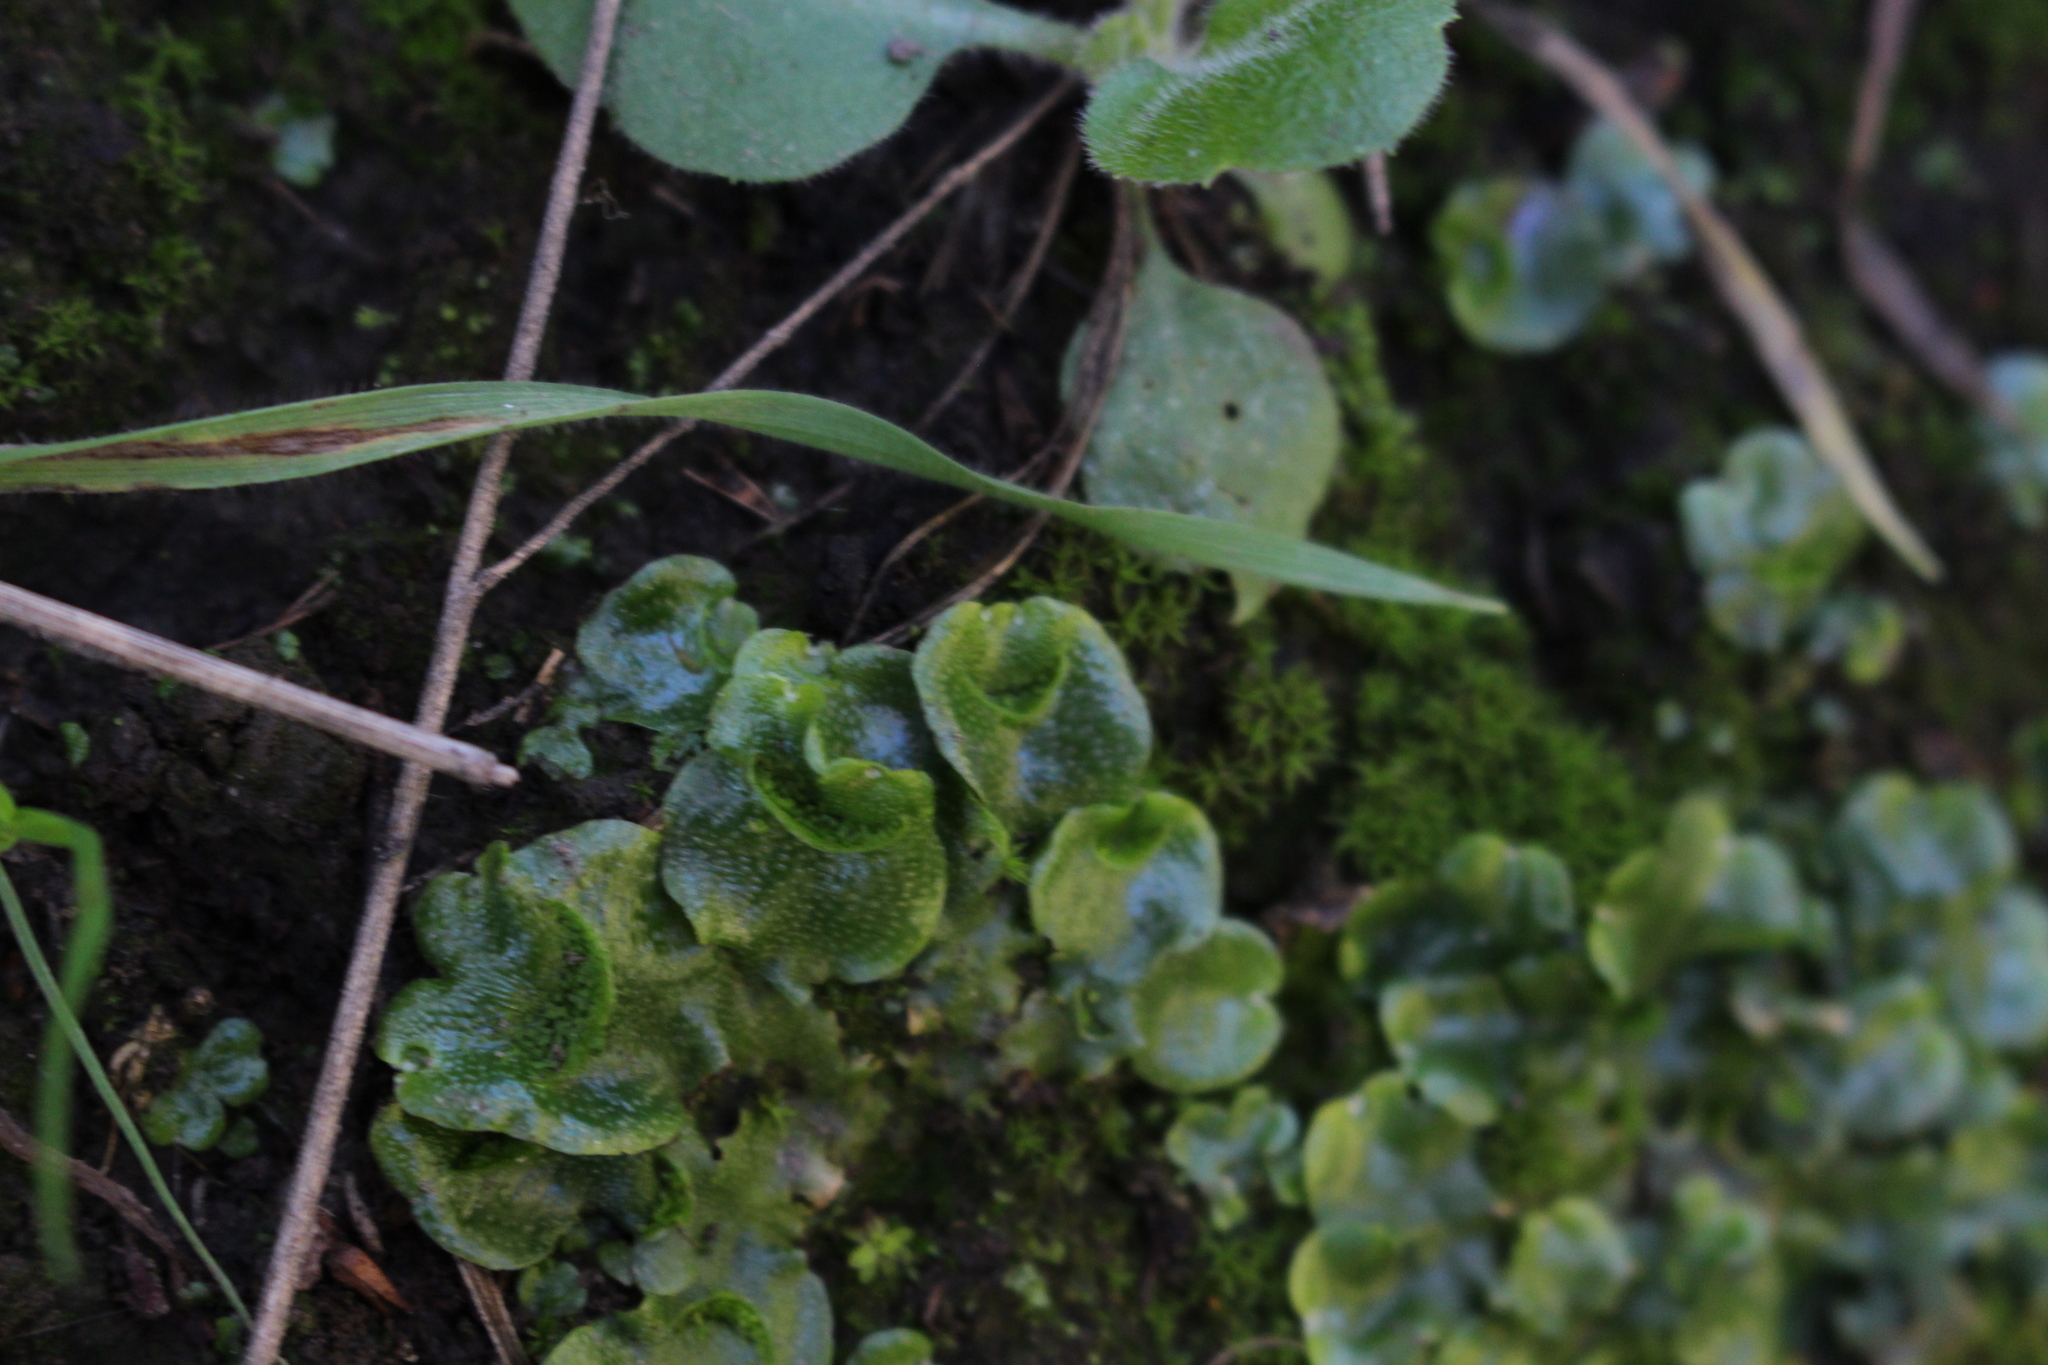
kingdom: Plantae
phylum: Marchantiophyta
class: Marchantiopsida
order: Lunulariales
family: Lunulariaceae
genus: Lunularia
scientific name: Lunularia cruciata
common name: Crescent-cup liverwort
